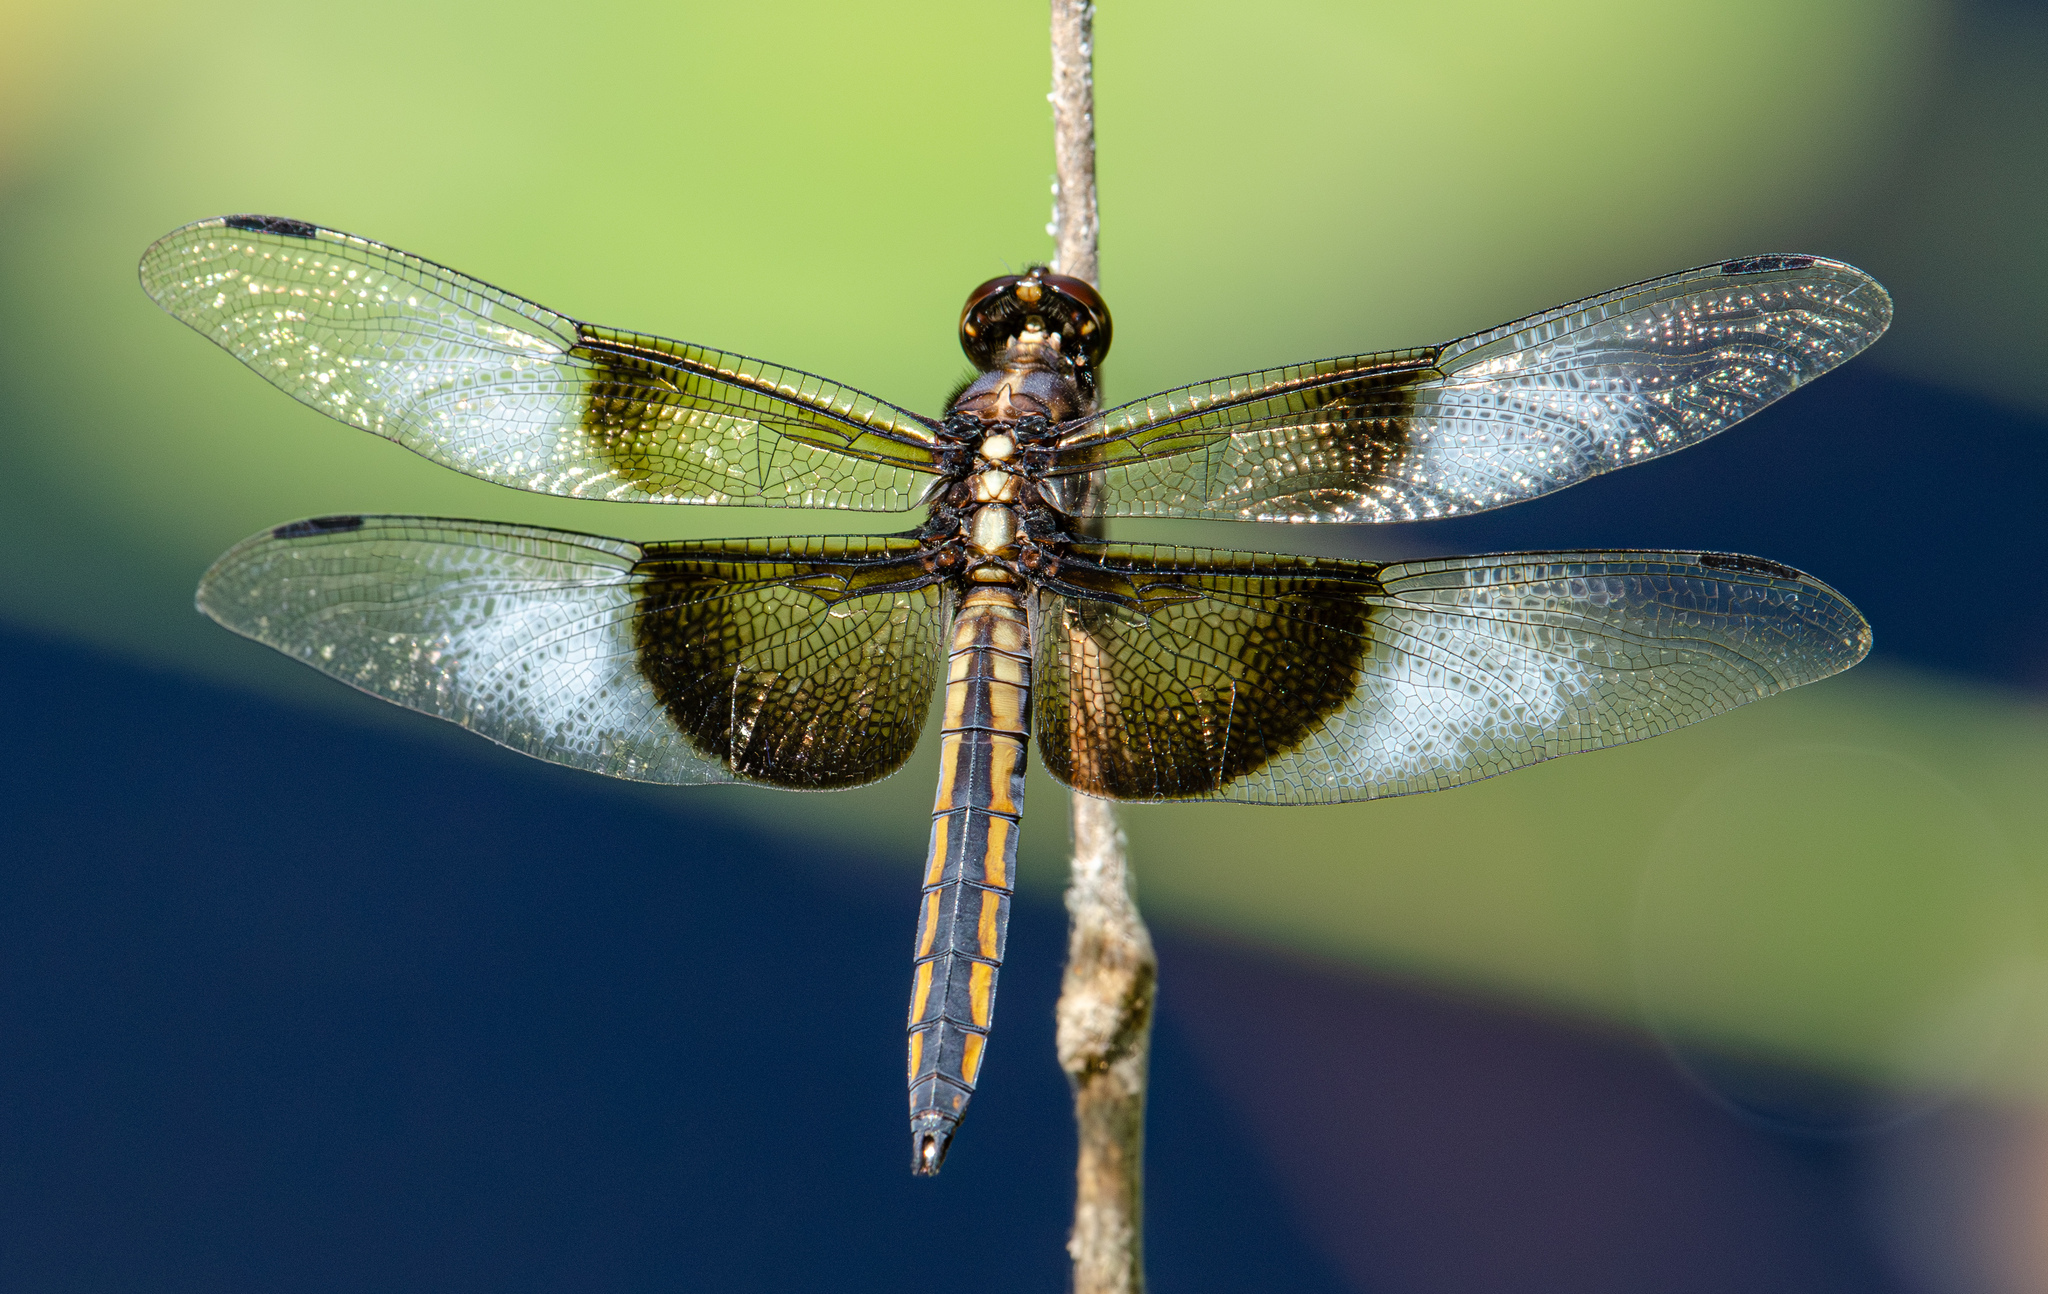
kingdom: Animalia
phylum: Arthropoda
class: Insecta
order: Odonata
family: Libellulidae
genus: Libellula
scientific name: Libellula luctuosa
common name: Widow skimmer
